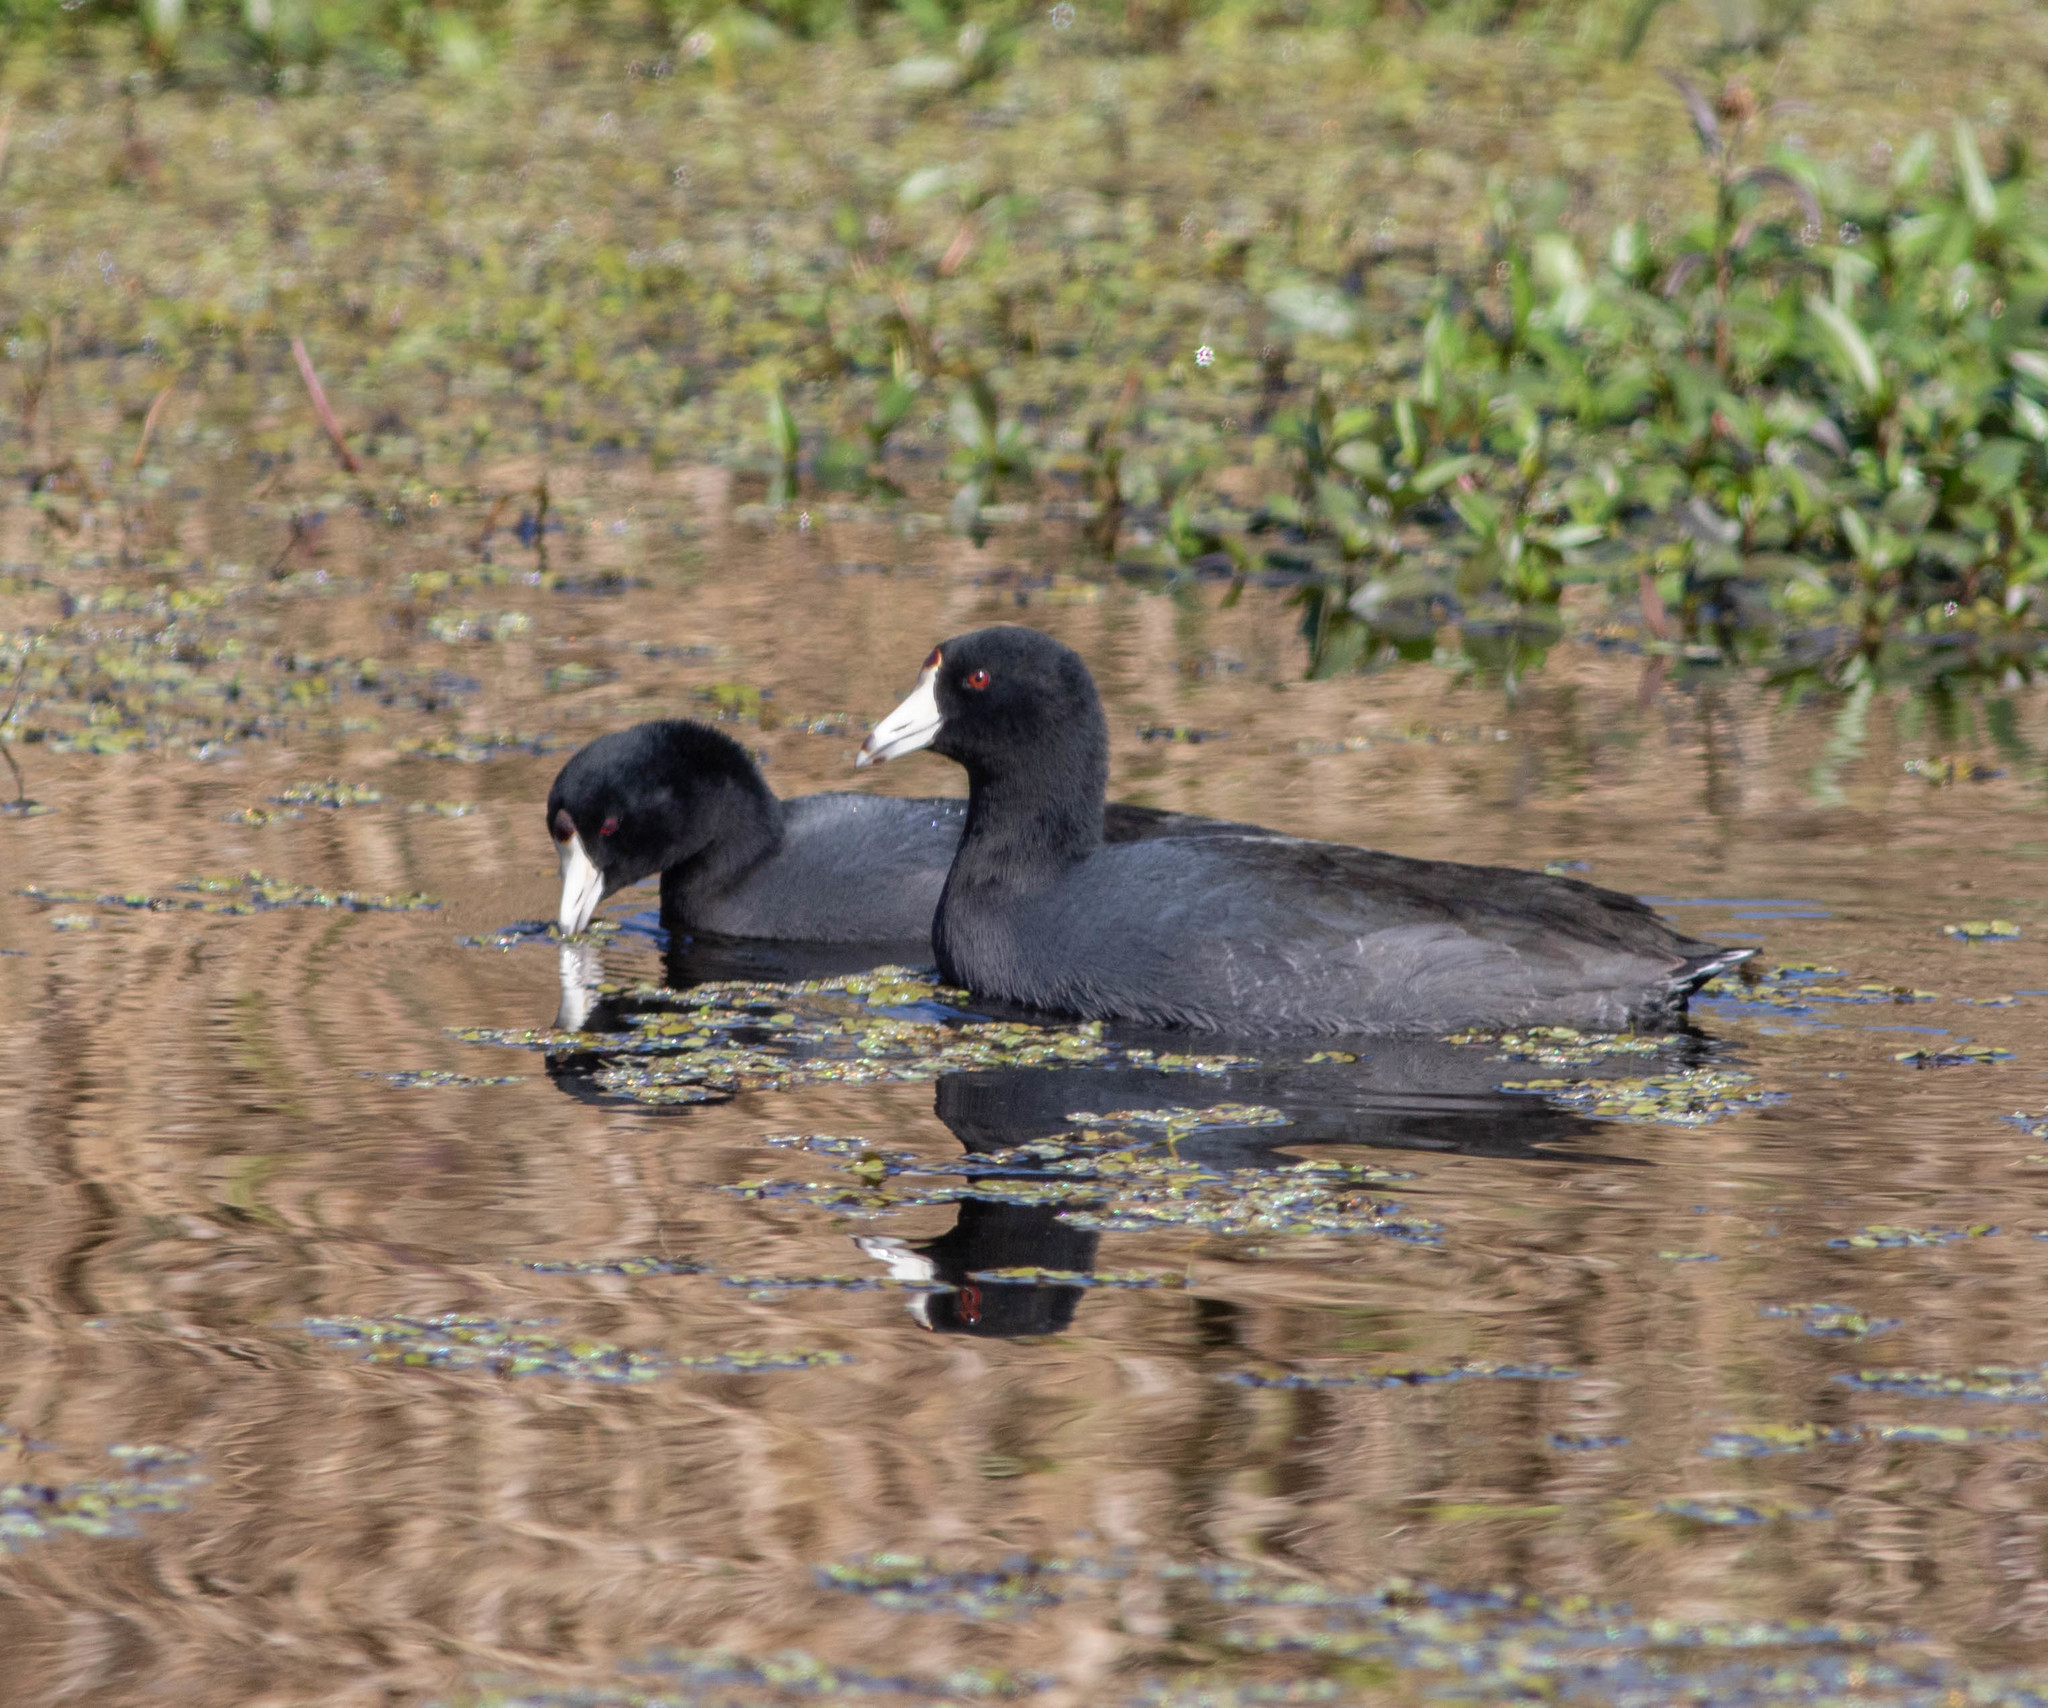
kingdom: Animalia
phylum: Chordata
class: Aves
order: Gruiformes
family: Rallidae
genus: Fulica
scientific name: Fulica americana
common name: American coot
